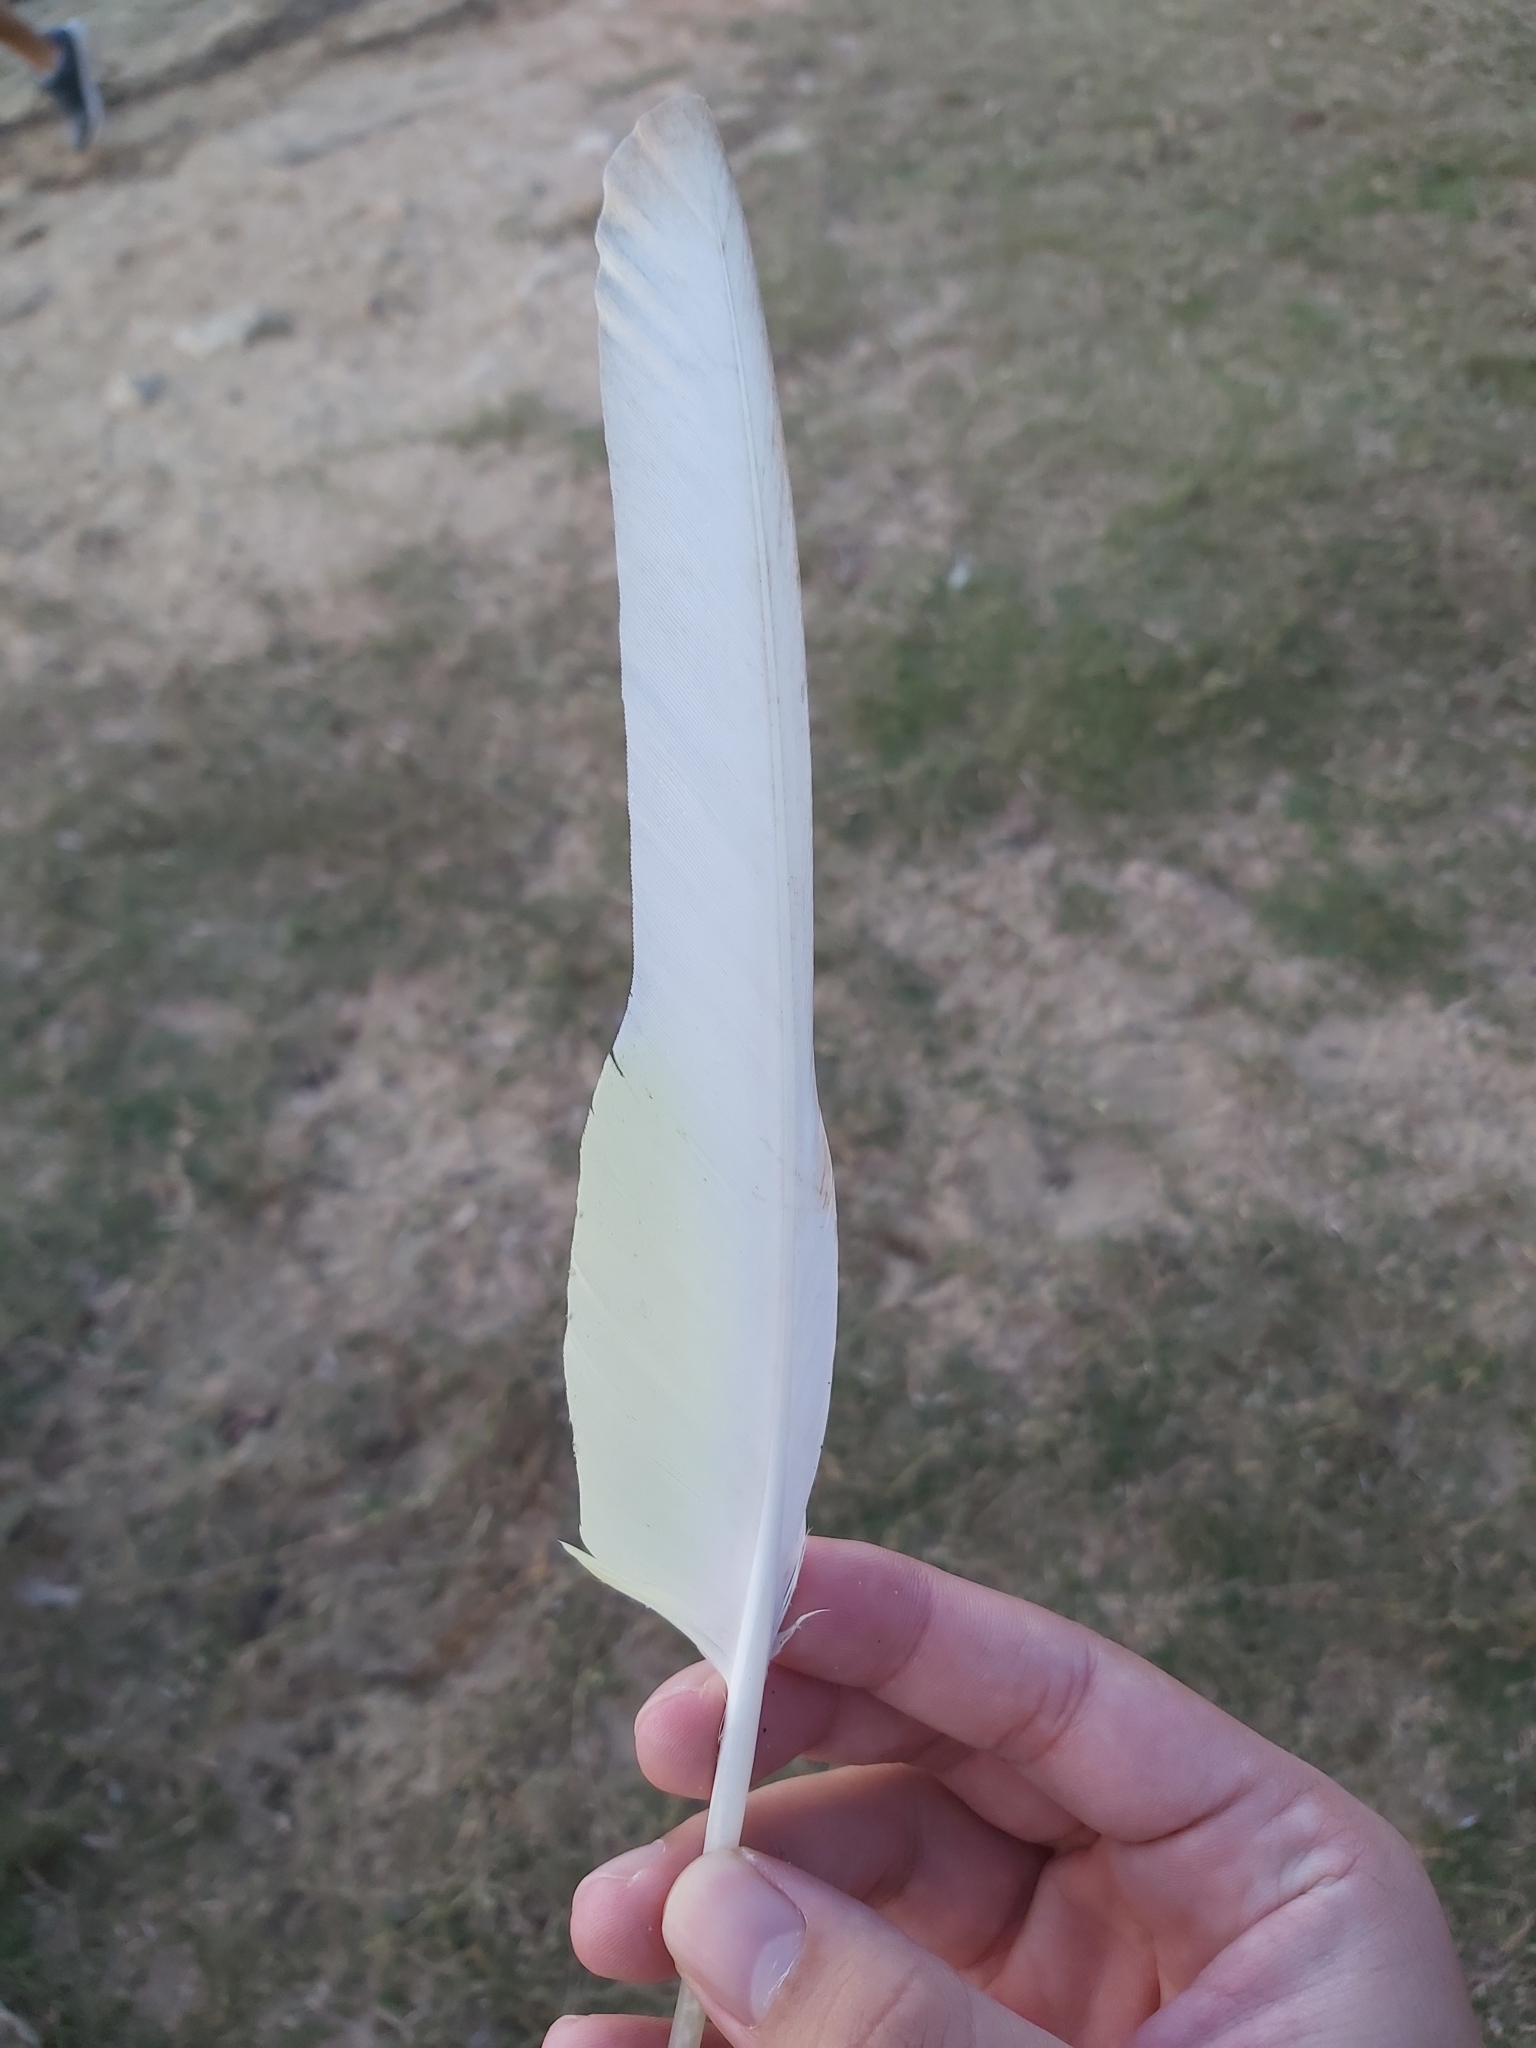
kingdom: Animalia
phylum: Chordata
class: Aves
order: Psittaciformes
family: Psittacidae
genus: Cacatua
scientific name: Cacatua galerita
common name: Sulphur-crested cockatoo
